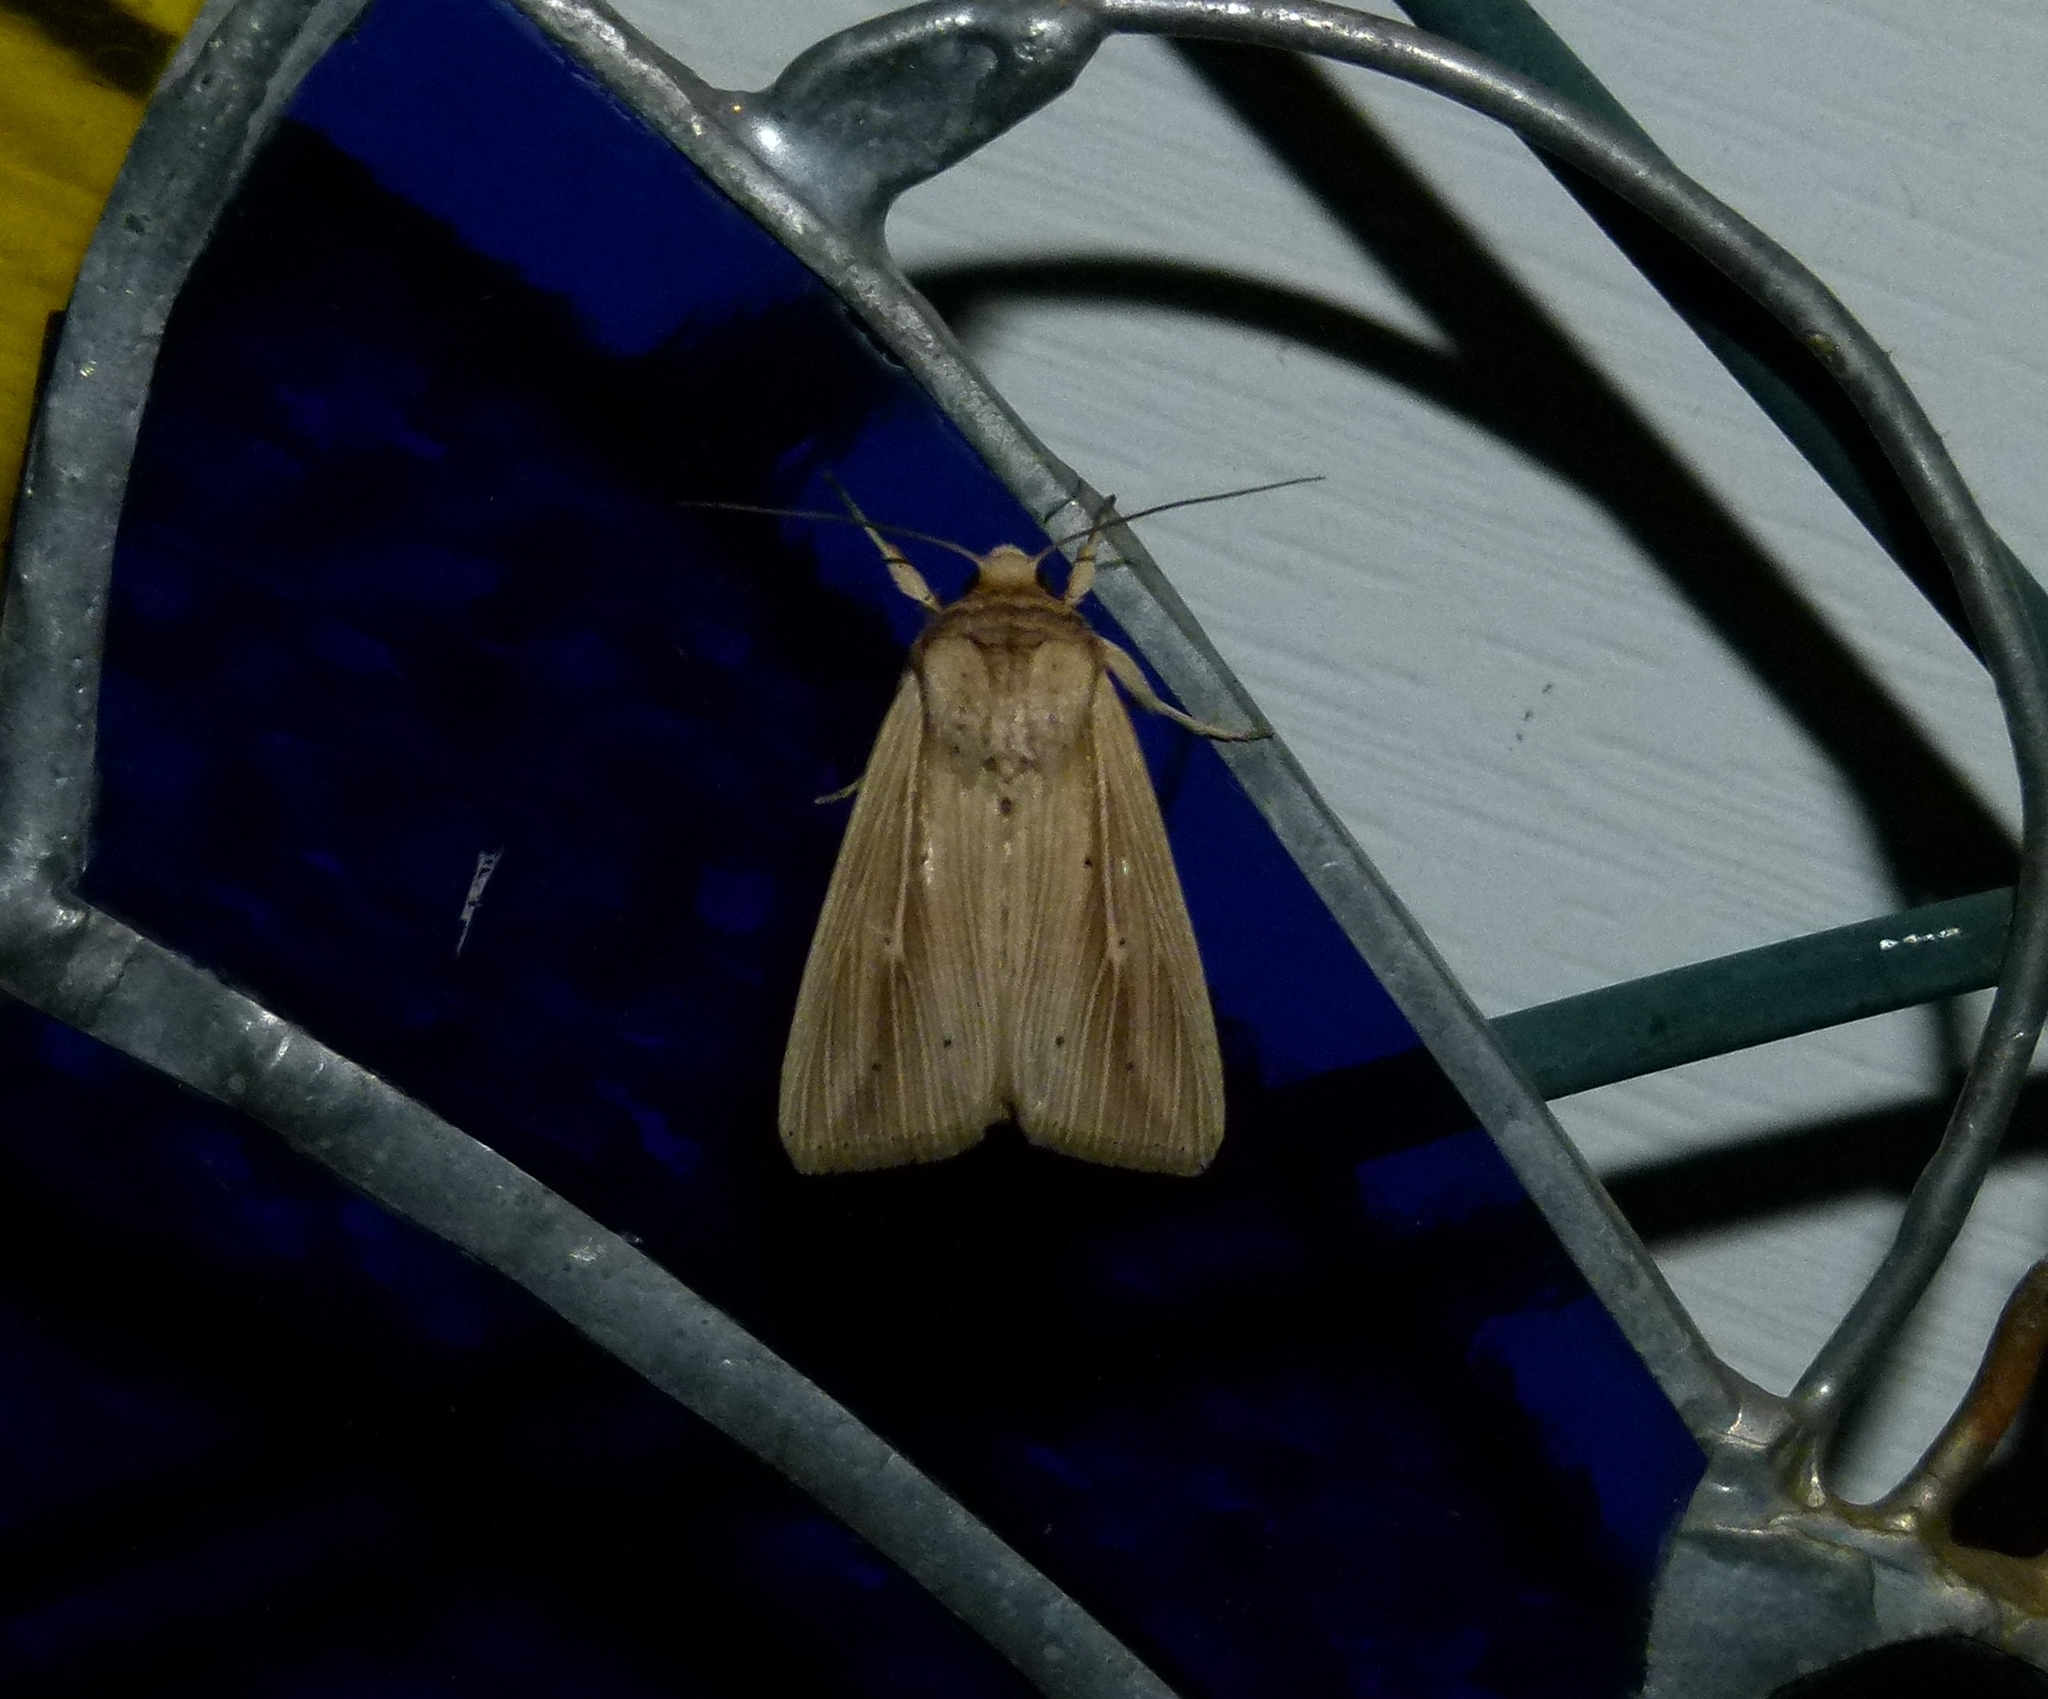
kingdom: Animalia
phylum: Arthropoda
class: Insecta
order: Lepidoptera
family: Noctuidae
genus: Leucania
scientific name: Leucania adjuta
